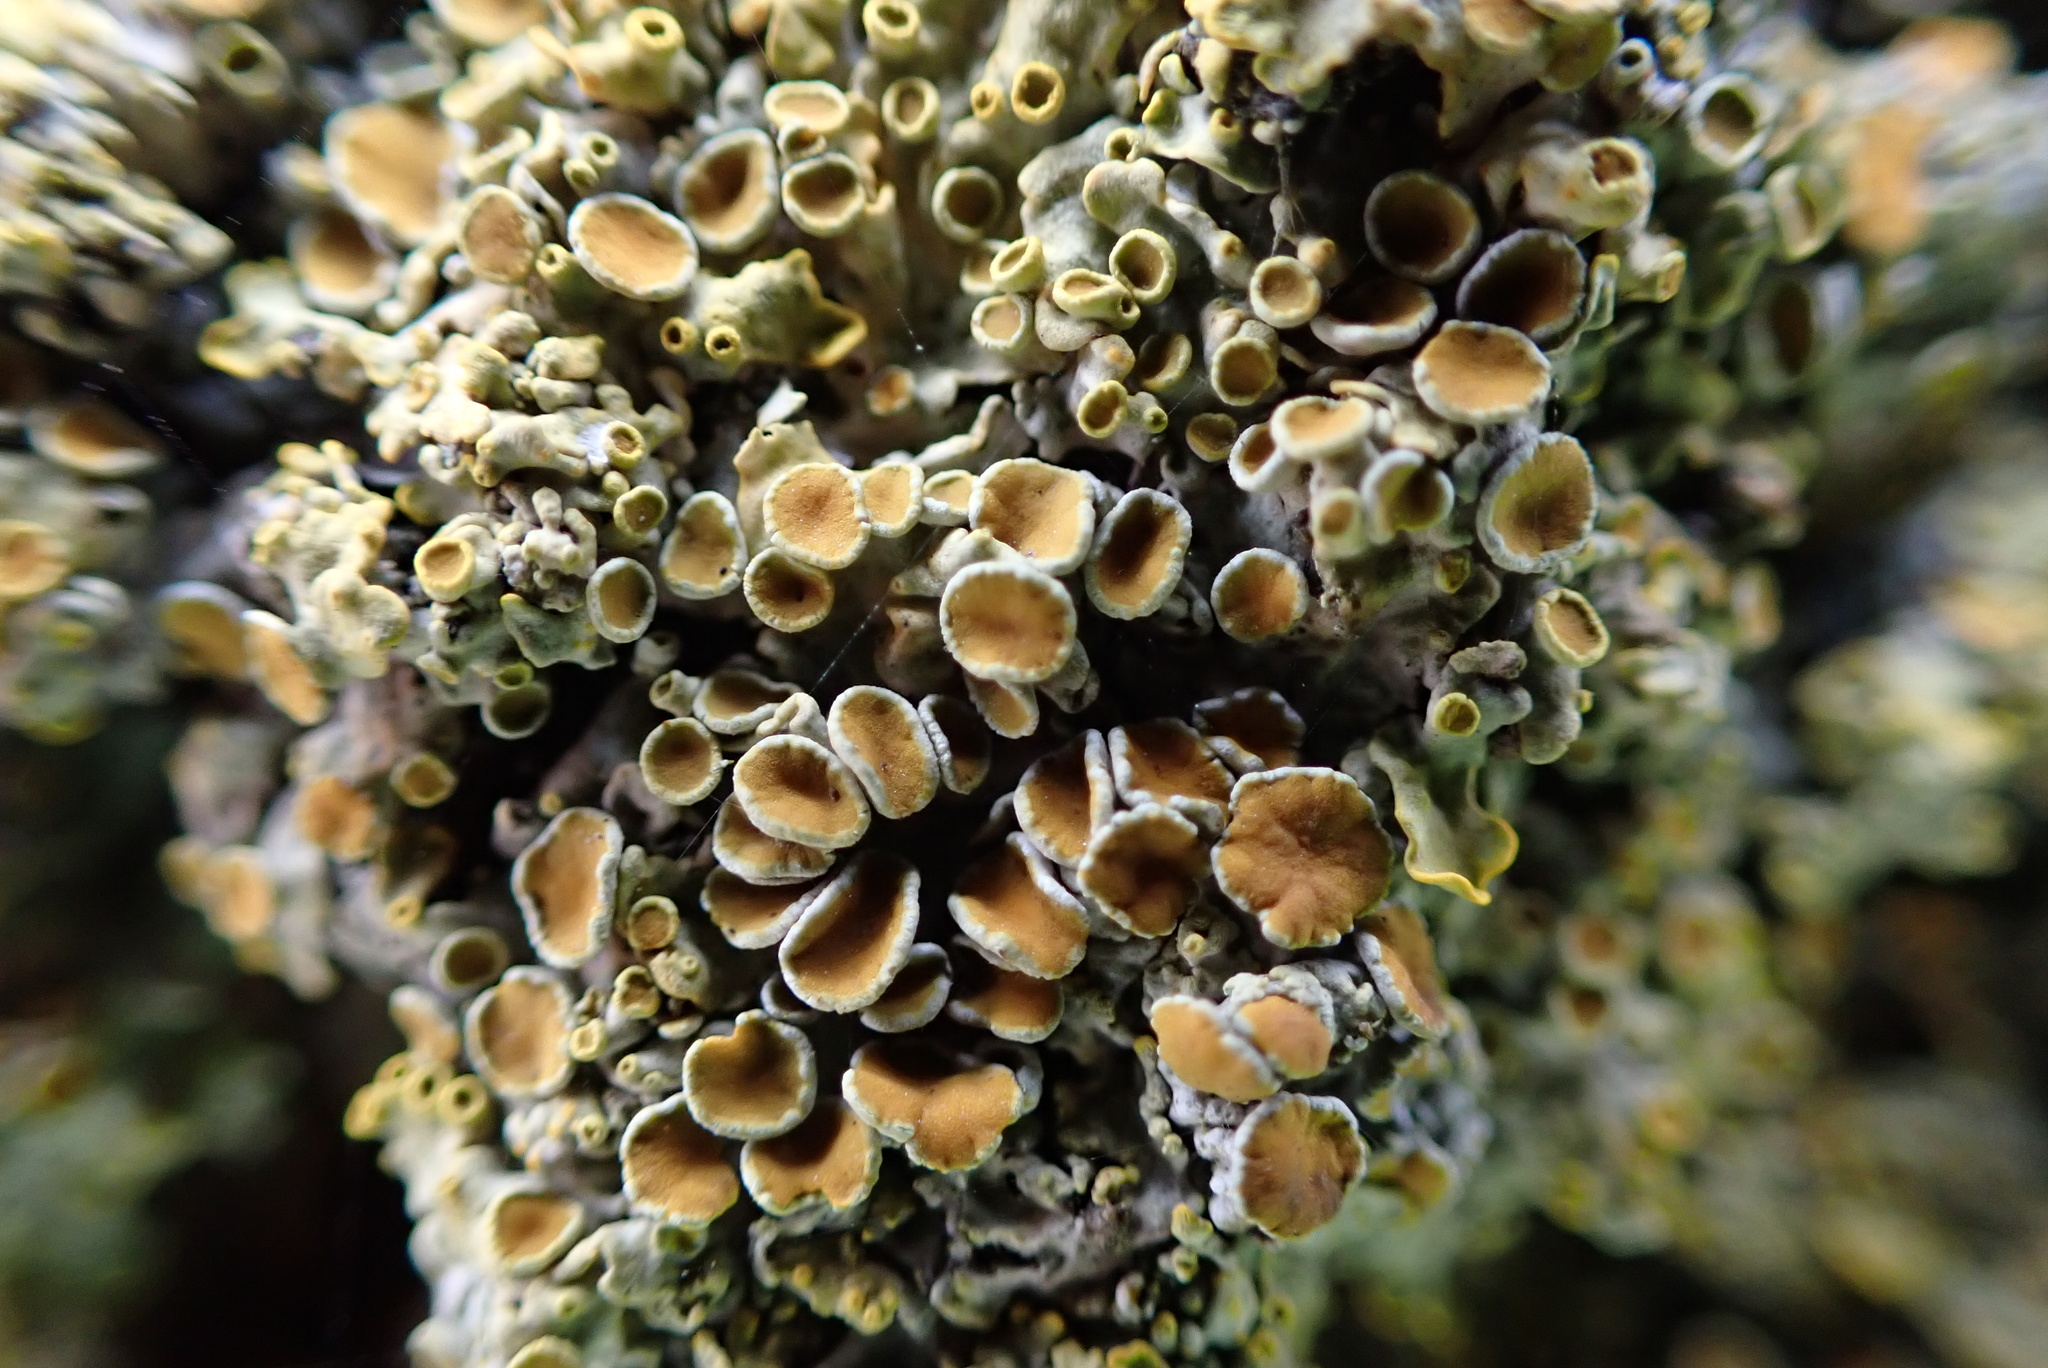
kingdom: Fungi
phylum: Ascomycota
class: Lecanoromycetes
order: Teloschistales
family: Teloschistaceae
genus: Xanthoria
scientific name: Xanthoria parietina
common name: Common orange lichen
